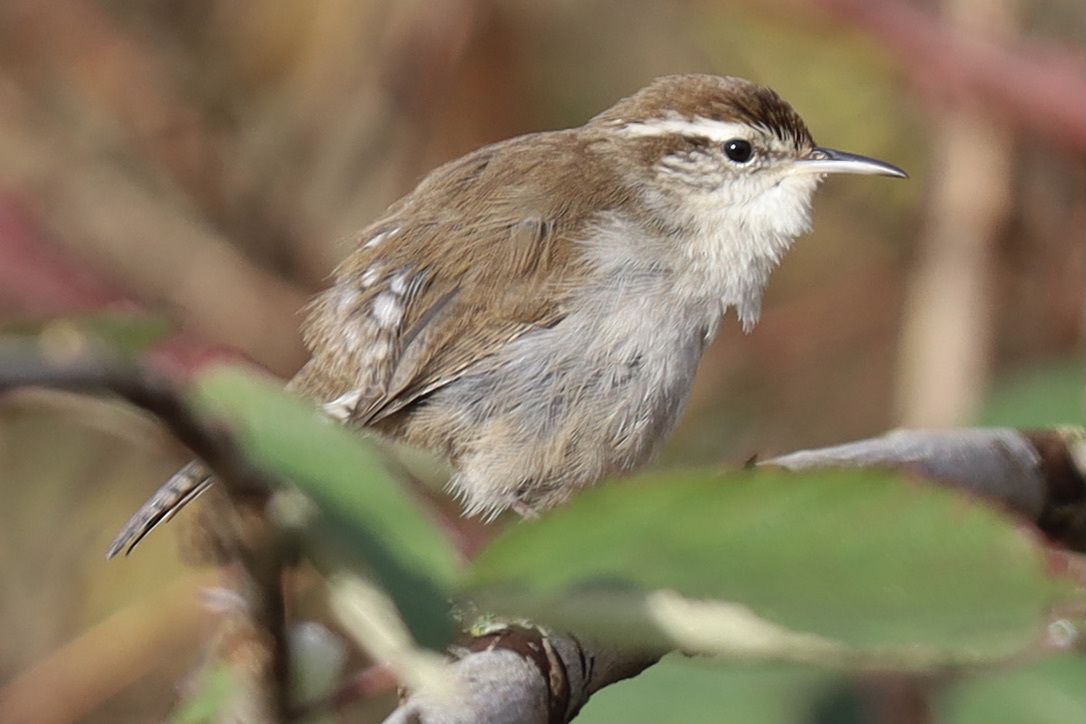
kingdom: Animalia
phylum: Chordata
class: Aves
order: Passeriformes
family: Troglodytidae
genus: Thryomanes
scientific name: Thryomanes bewickii
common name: Bewick's wren
